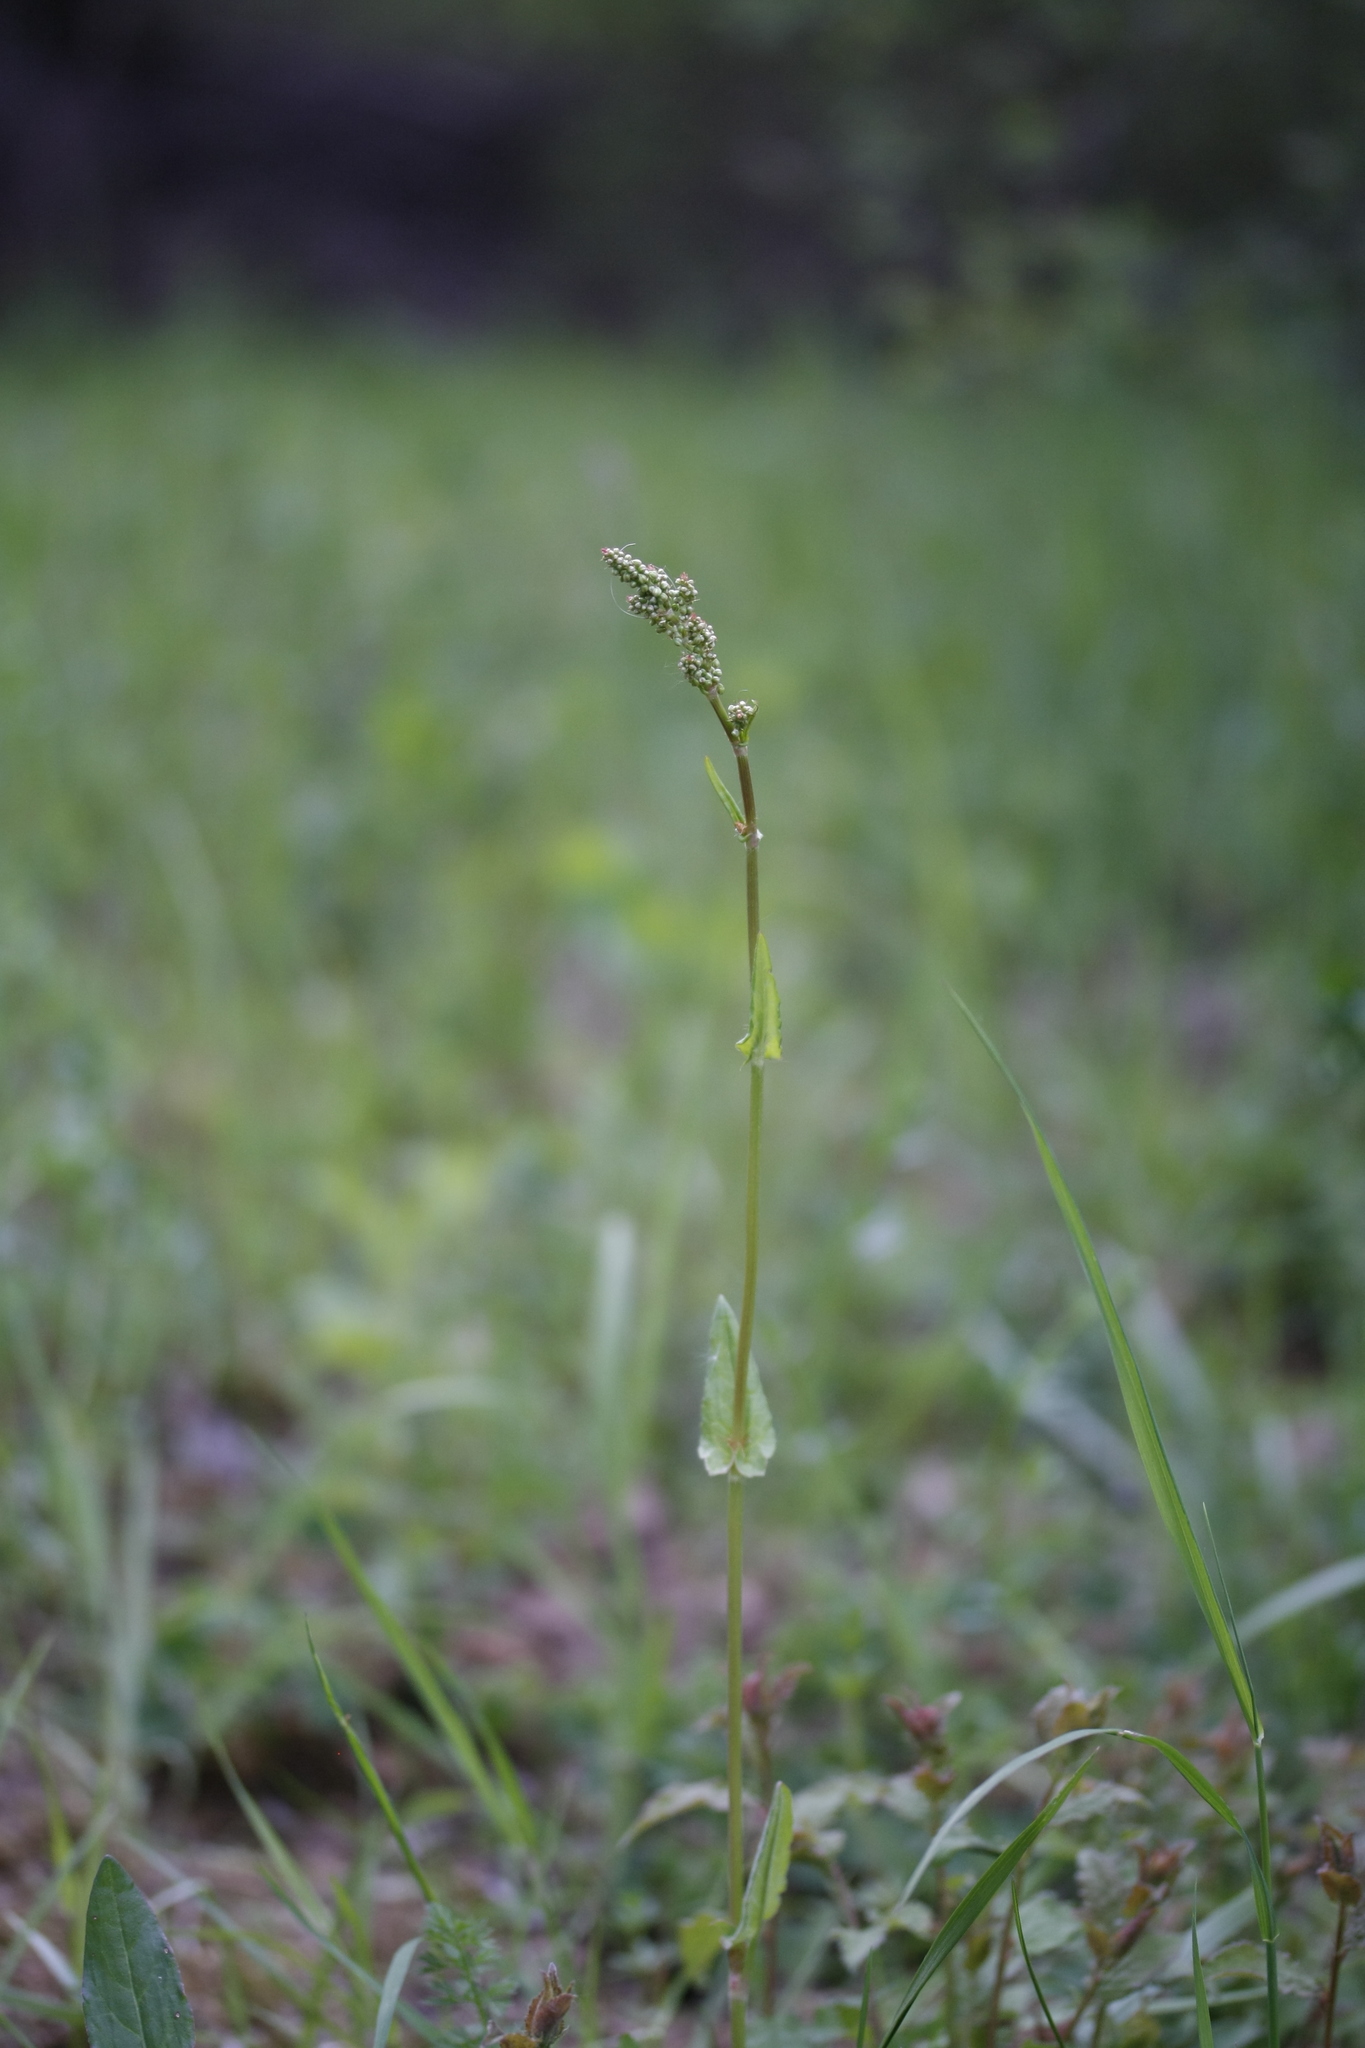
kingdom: Plantae
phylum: Tracheophyta
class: Magnoliopsida
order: Caryophyllales
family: Polygonaceae
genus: Rumex
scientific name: Rumex acetosa
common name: Garden sorrel
